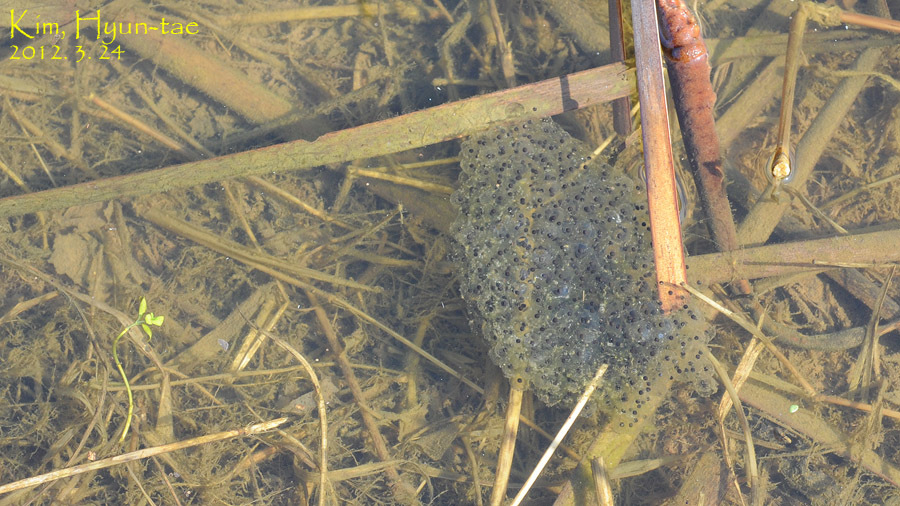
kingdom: Animalia
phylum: Chordata
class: Amphibia
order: Anura
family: Ranidae
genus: Rana
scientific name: Rana coreana
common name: Korean brown frog
